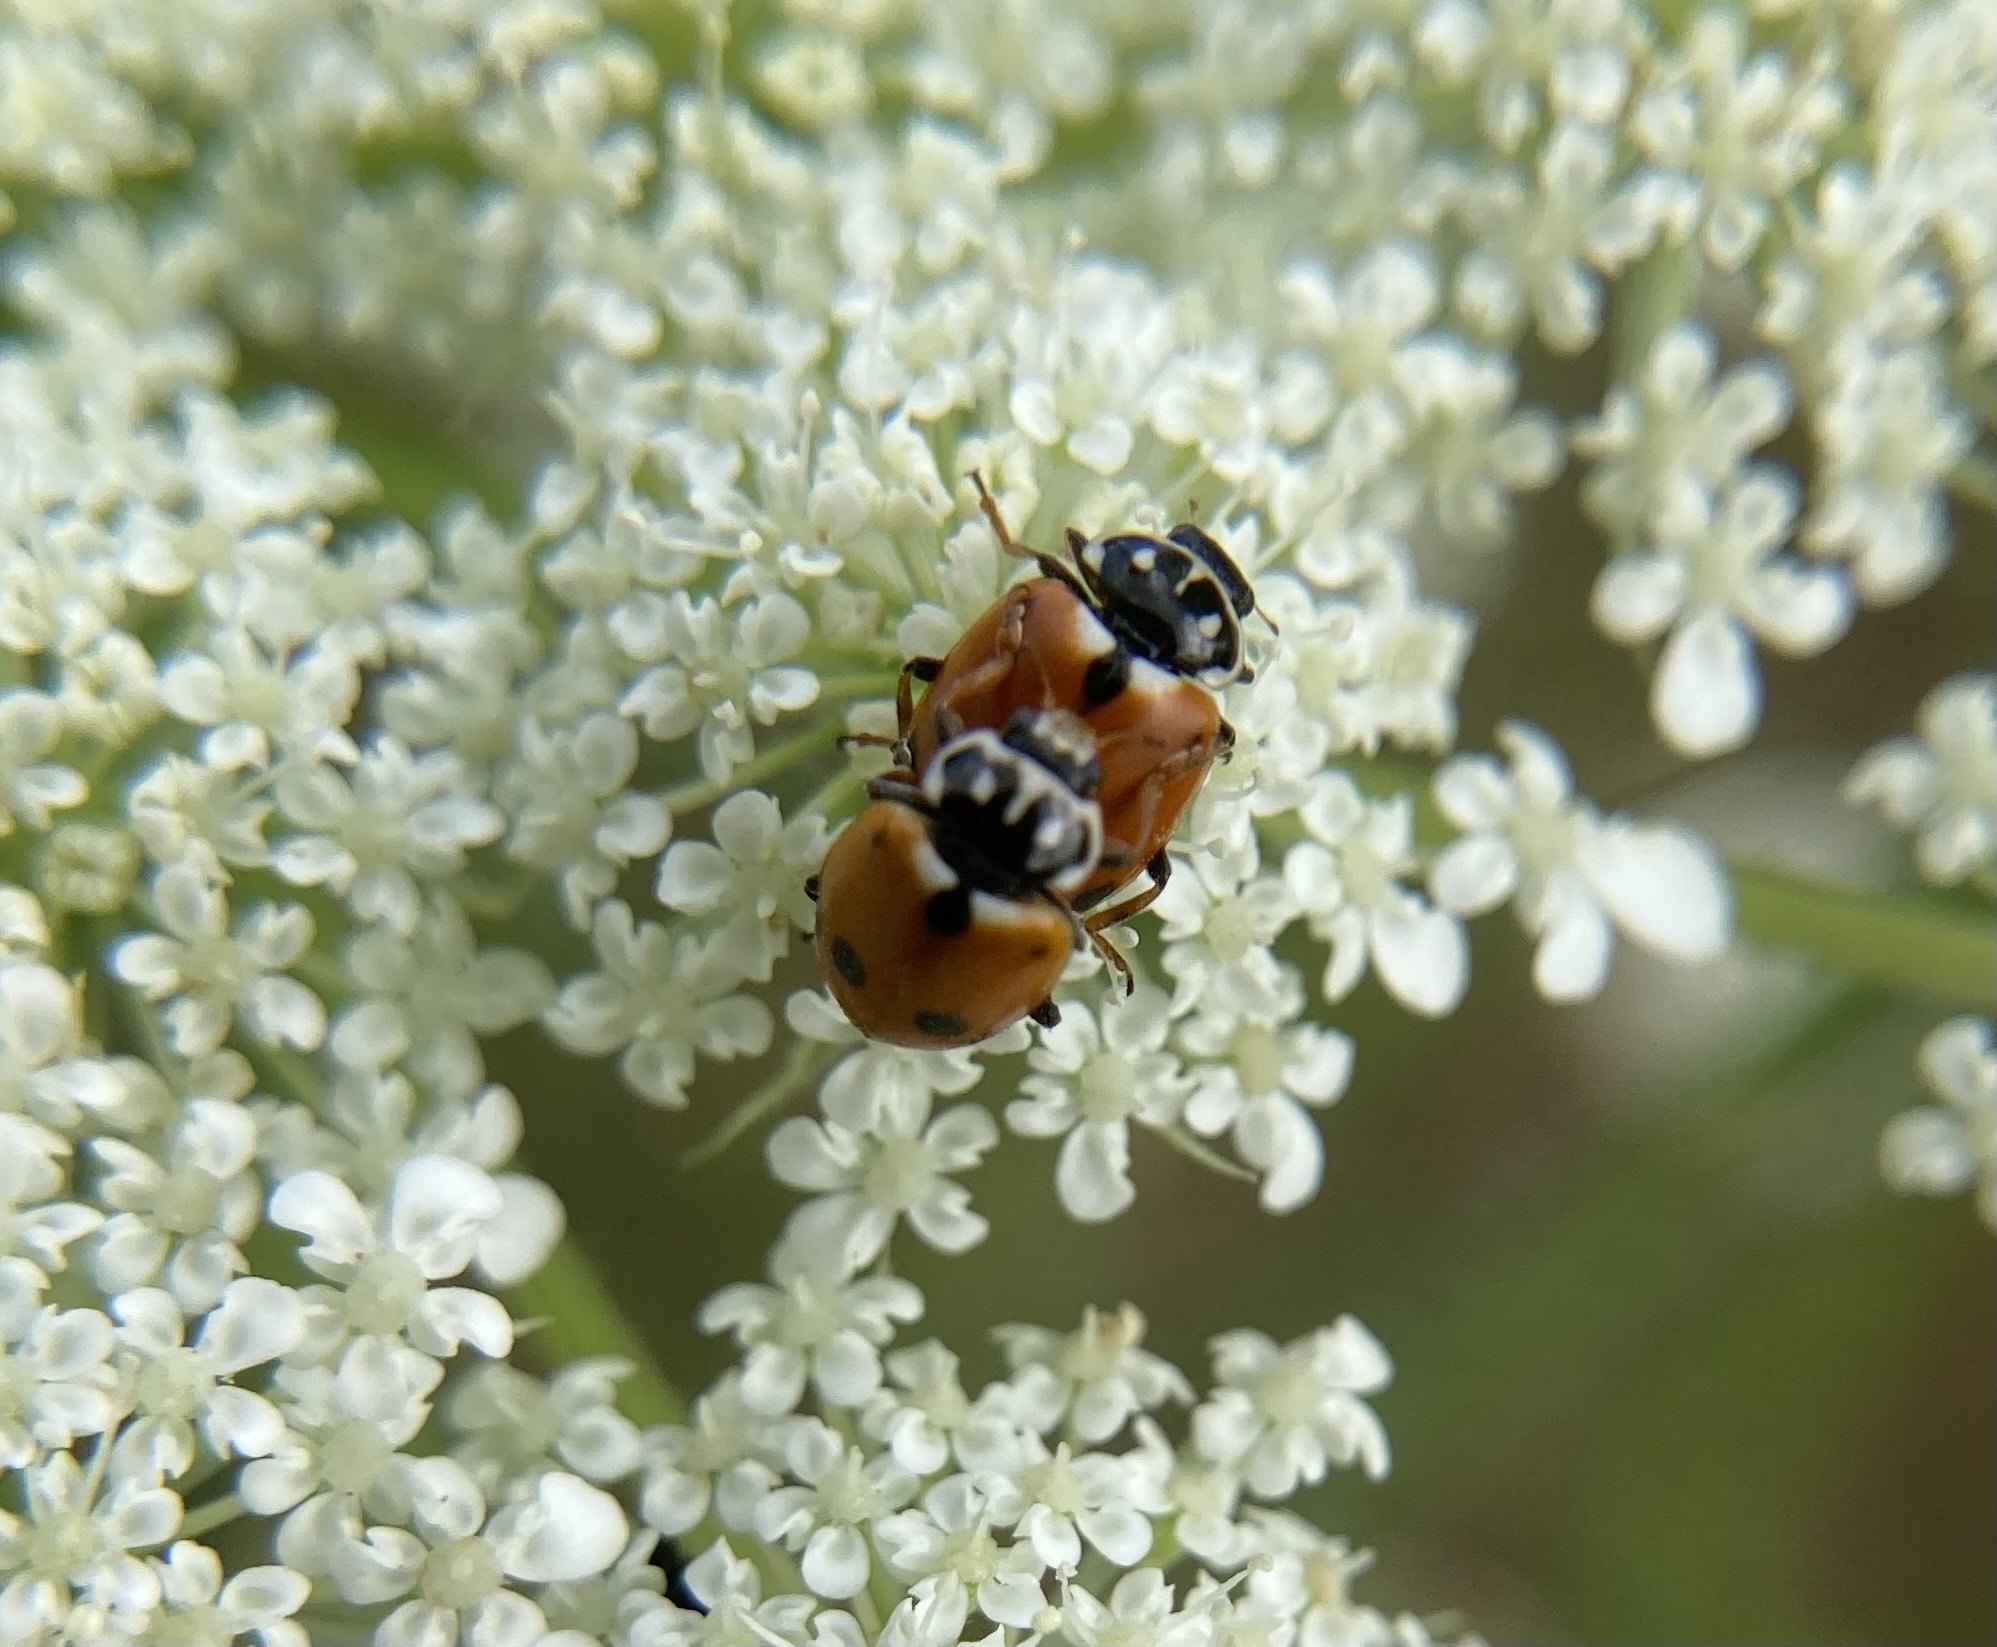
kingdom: Animalia
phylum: Arthropoda
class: Insecta
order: Coleoptera
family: Coccinellidae
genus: Hippodamia
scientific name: Hippodamia variegata
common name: Ladybird beetle
